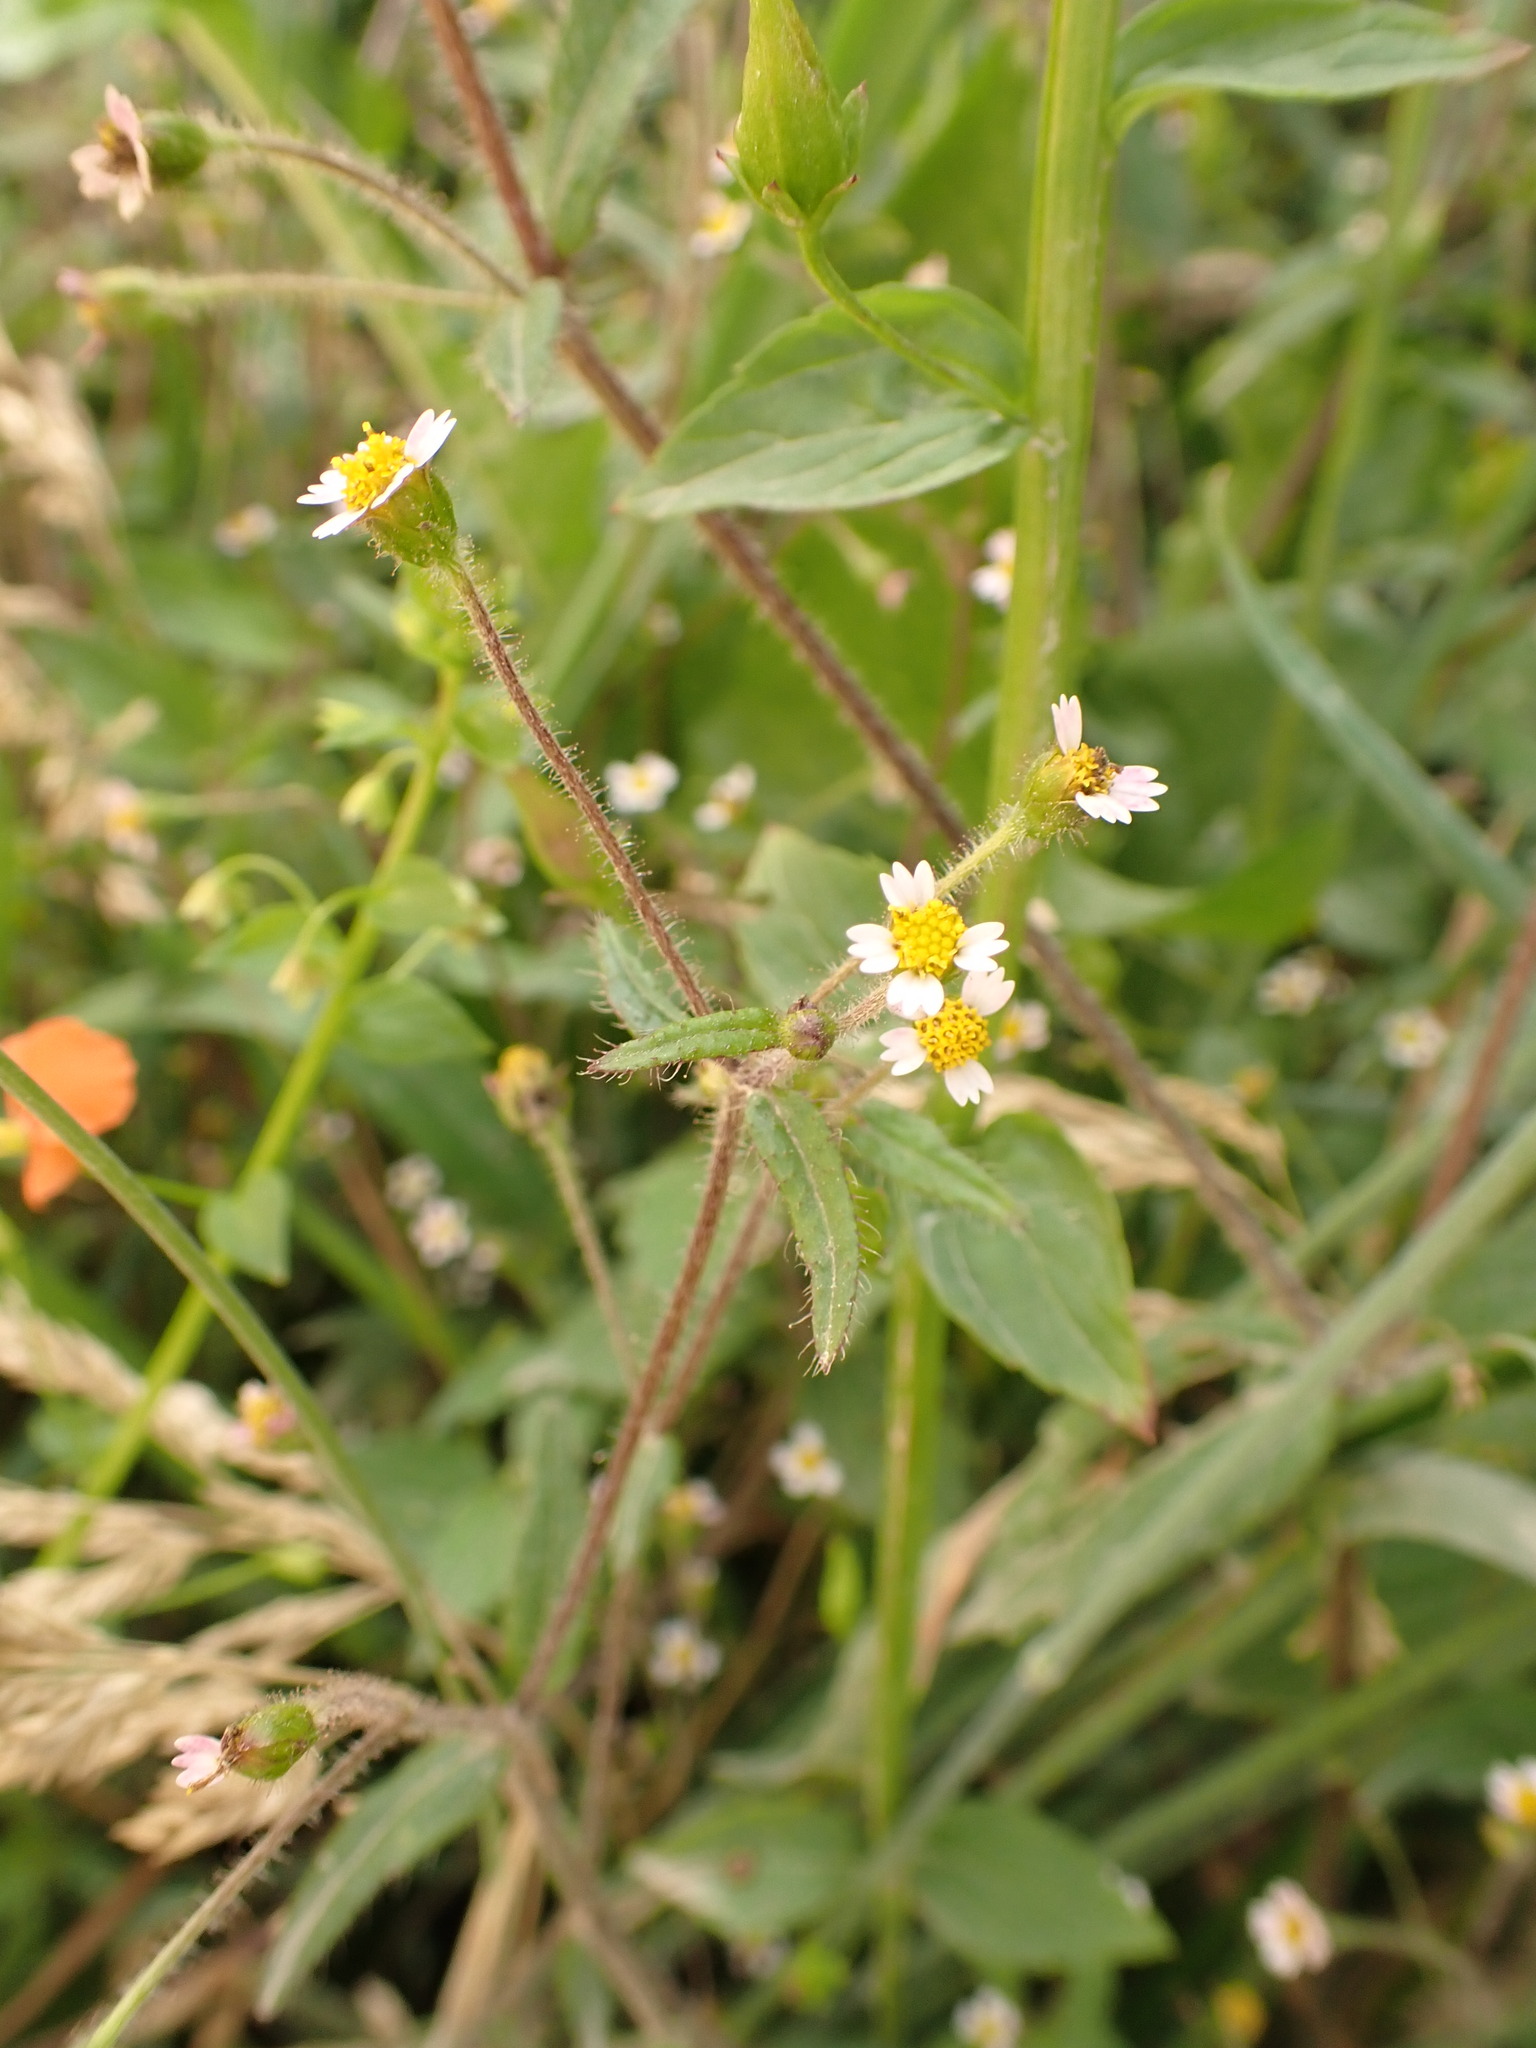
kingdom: Plantae
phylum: Tracheophyta
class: Magnoliopsida
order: Asterales
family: Asteraceae
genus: Galinsoga
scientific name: Galinsoga quadriradiata
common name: Shaggy soldier
